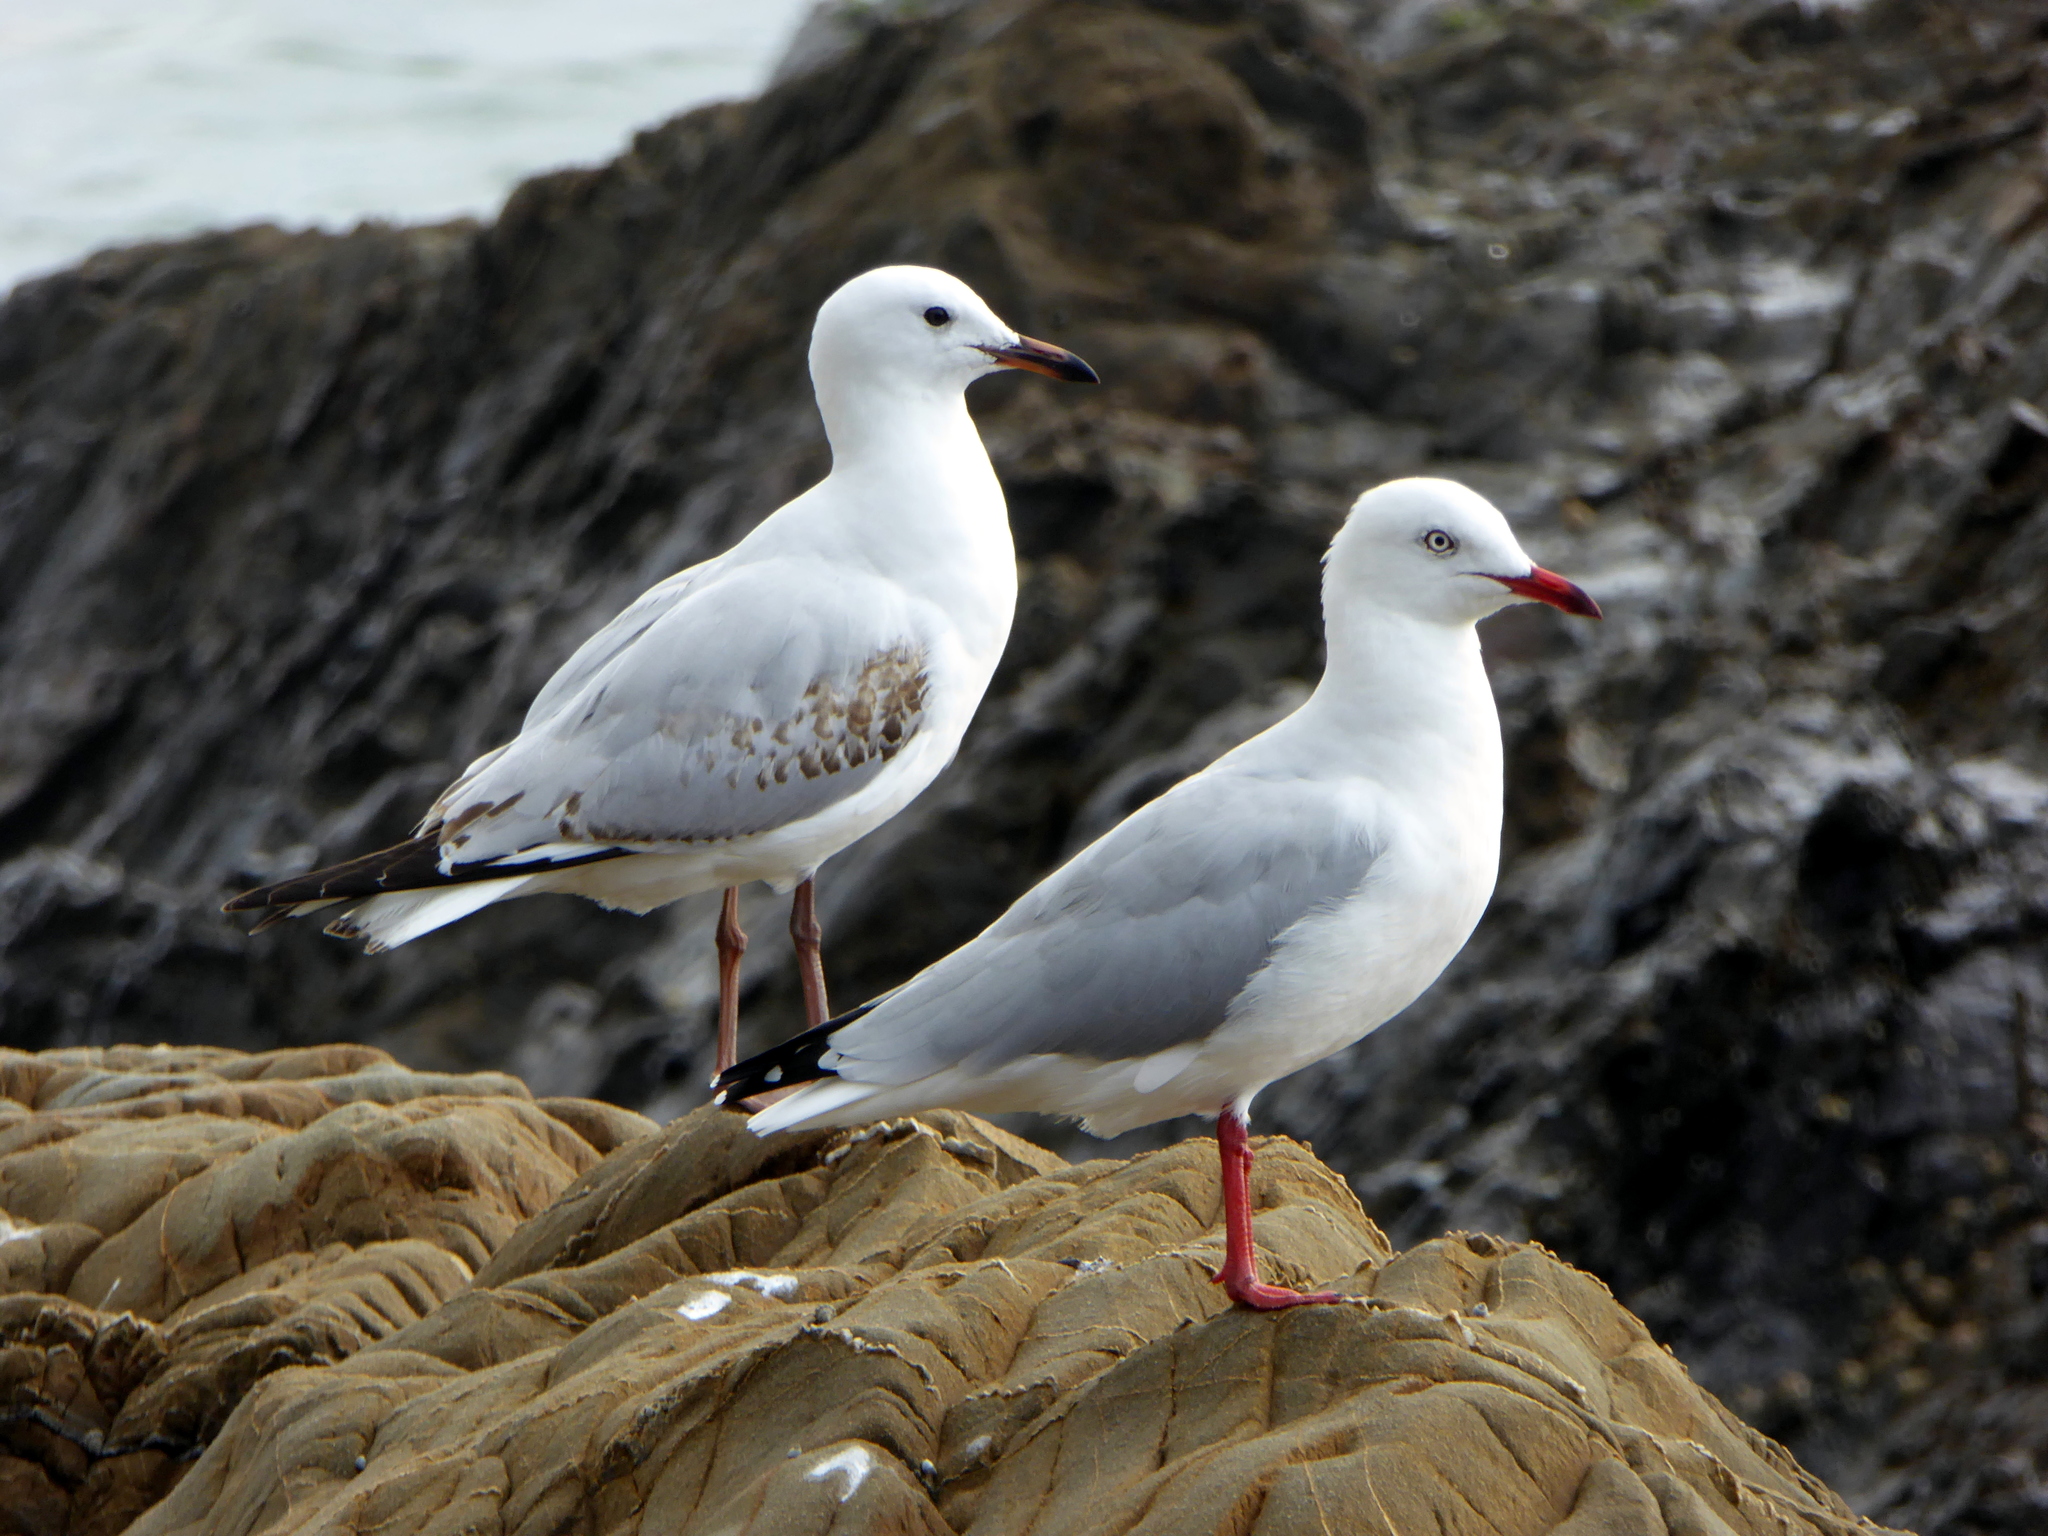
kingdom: Animalia
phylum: Chordata
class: Aves
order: Charadriiformes
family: Laridae
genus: Chroicocephalus
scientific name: Chroicocephalus novaehollandiae
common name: Silver gull
